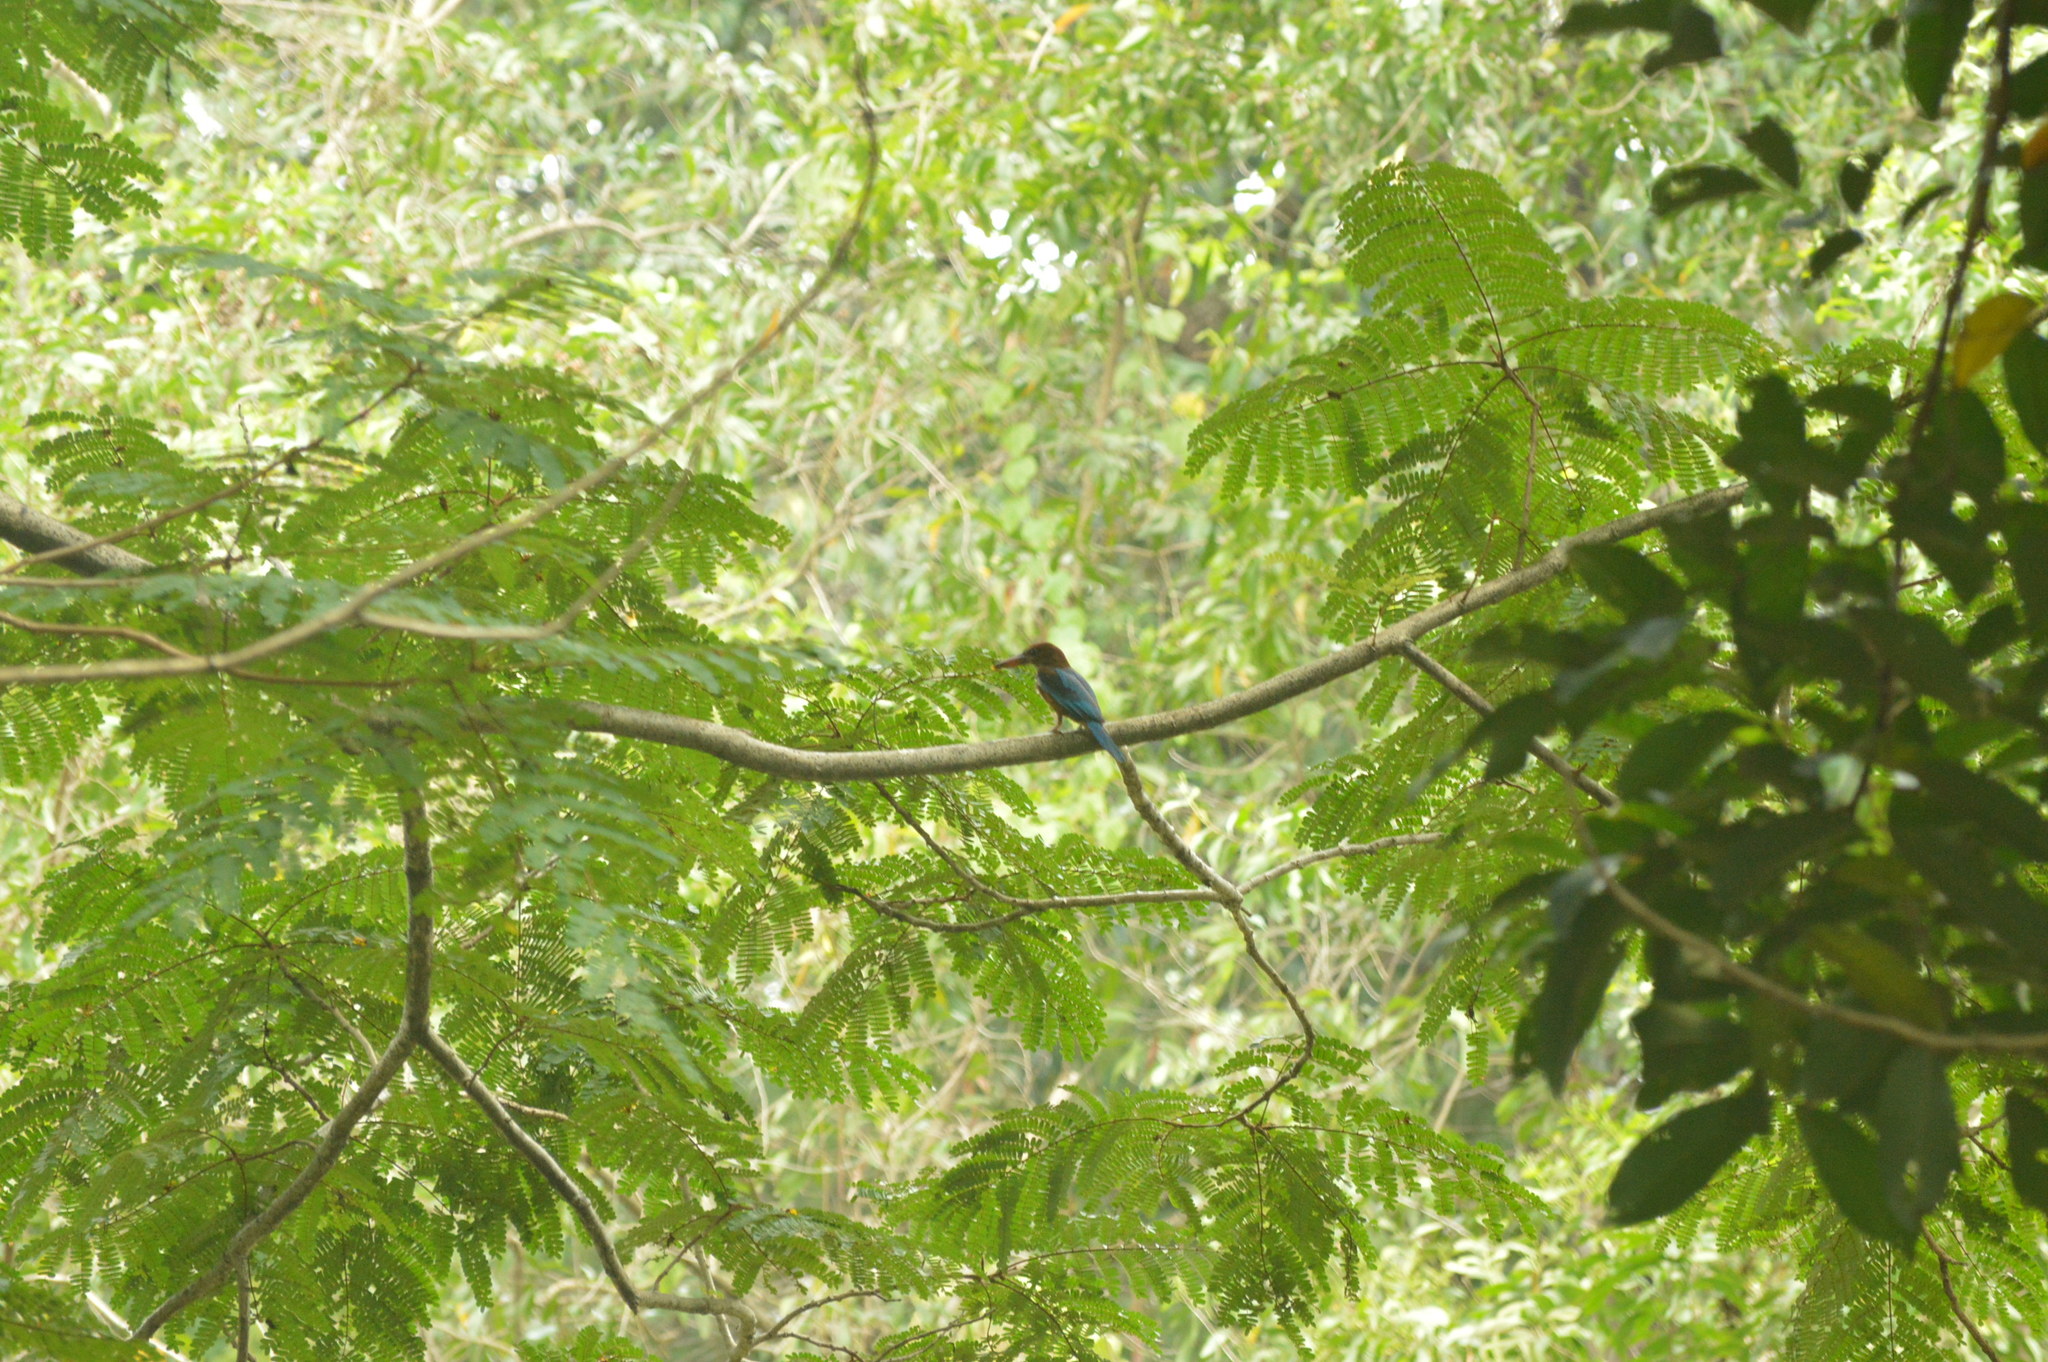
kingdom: Animalia
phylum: Chordata
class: Aves
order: Coraciiformes
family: Alcedinidae
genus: Halcyon
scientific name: Halcyon smyrnensis
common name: White-throated kingfisher
